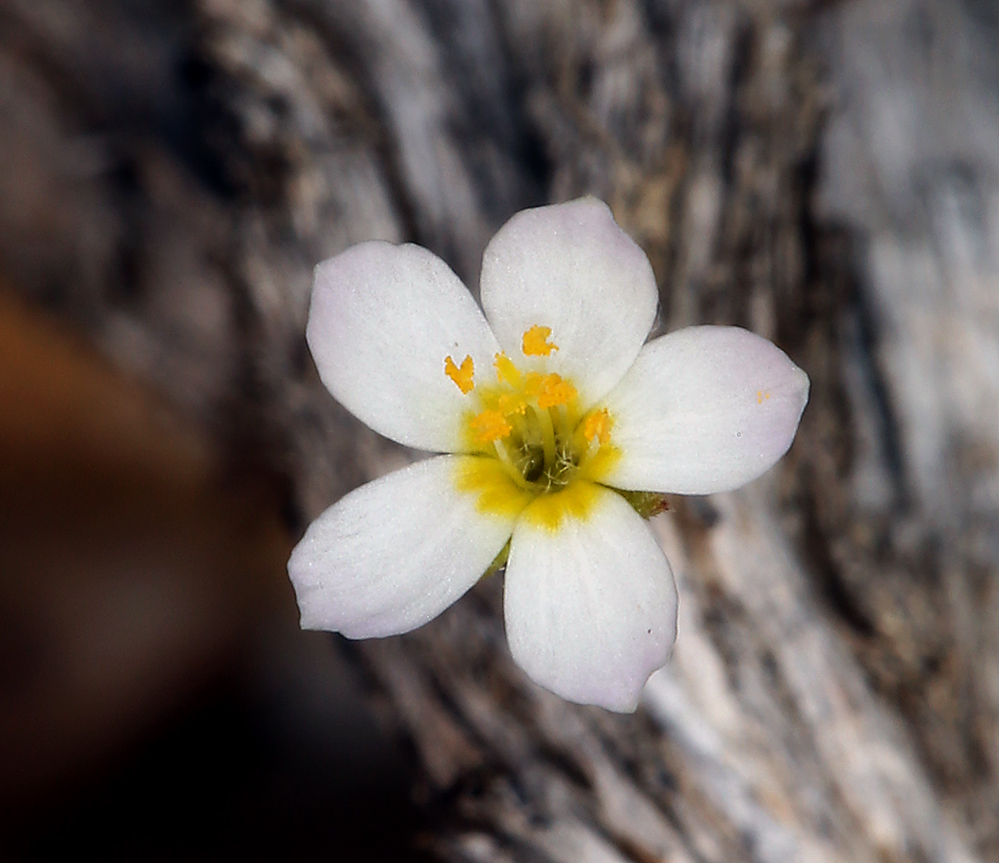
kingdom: Plantae
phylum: Tracheophyta
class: Magnoliopsida
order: Ericales
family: Polemoniaceae
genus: Leptosiphon
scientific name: Leptosiphon septentrionalis
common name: Northern linanthus
